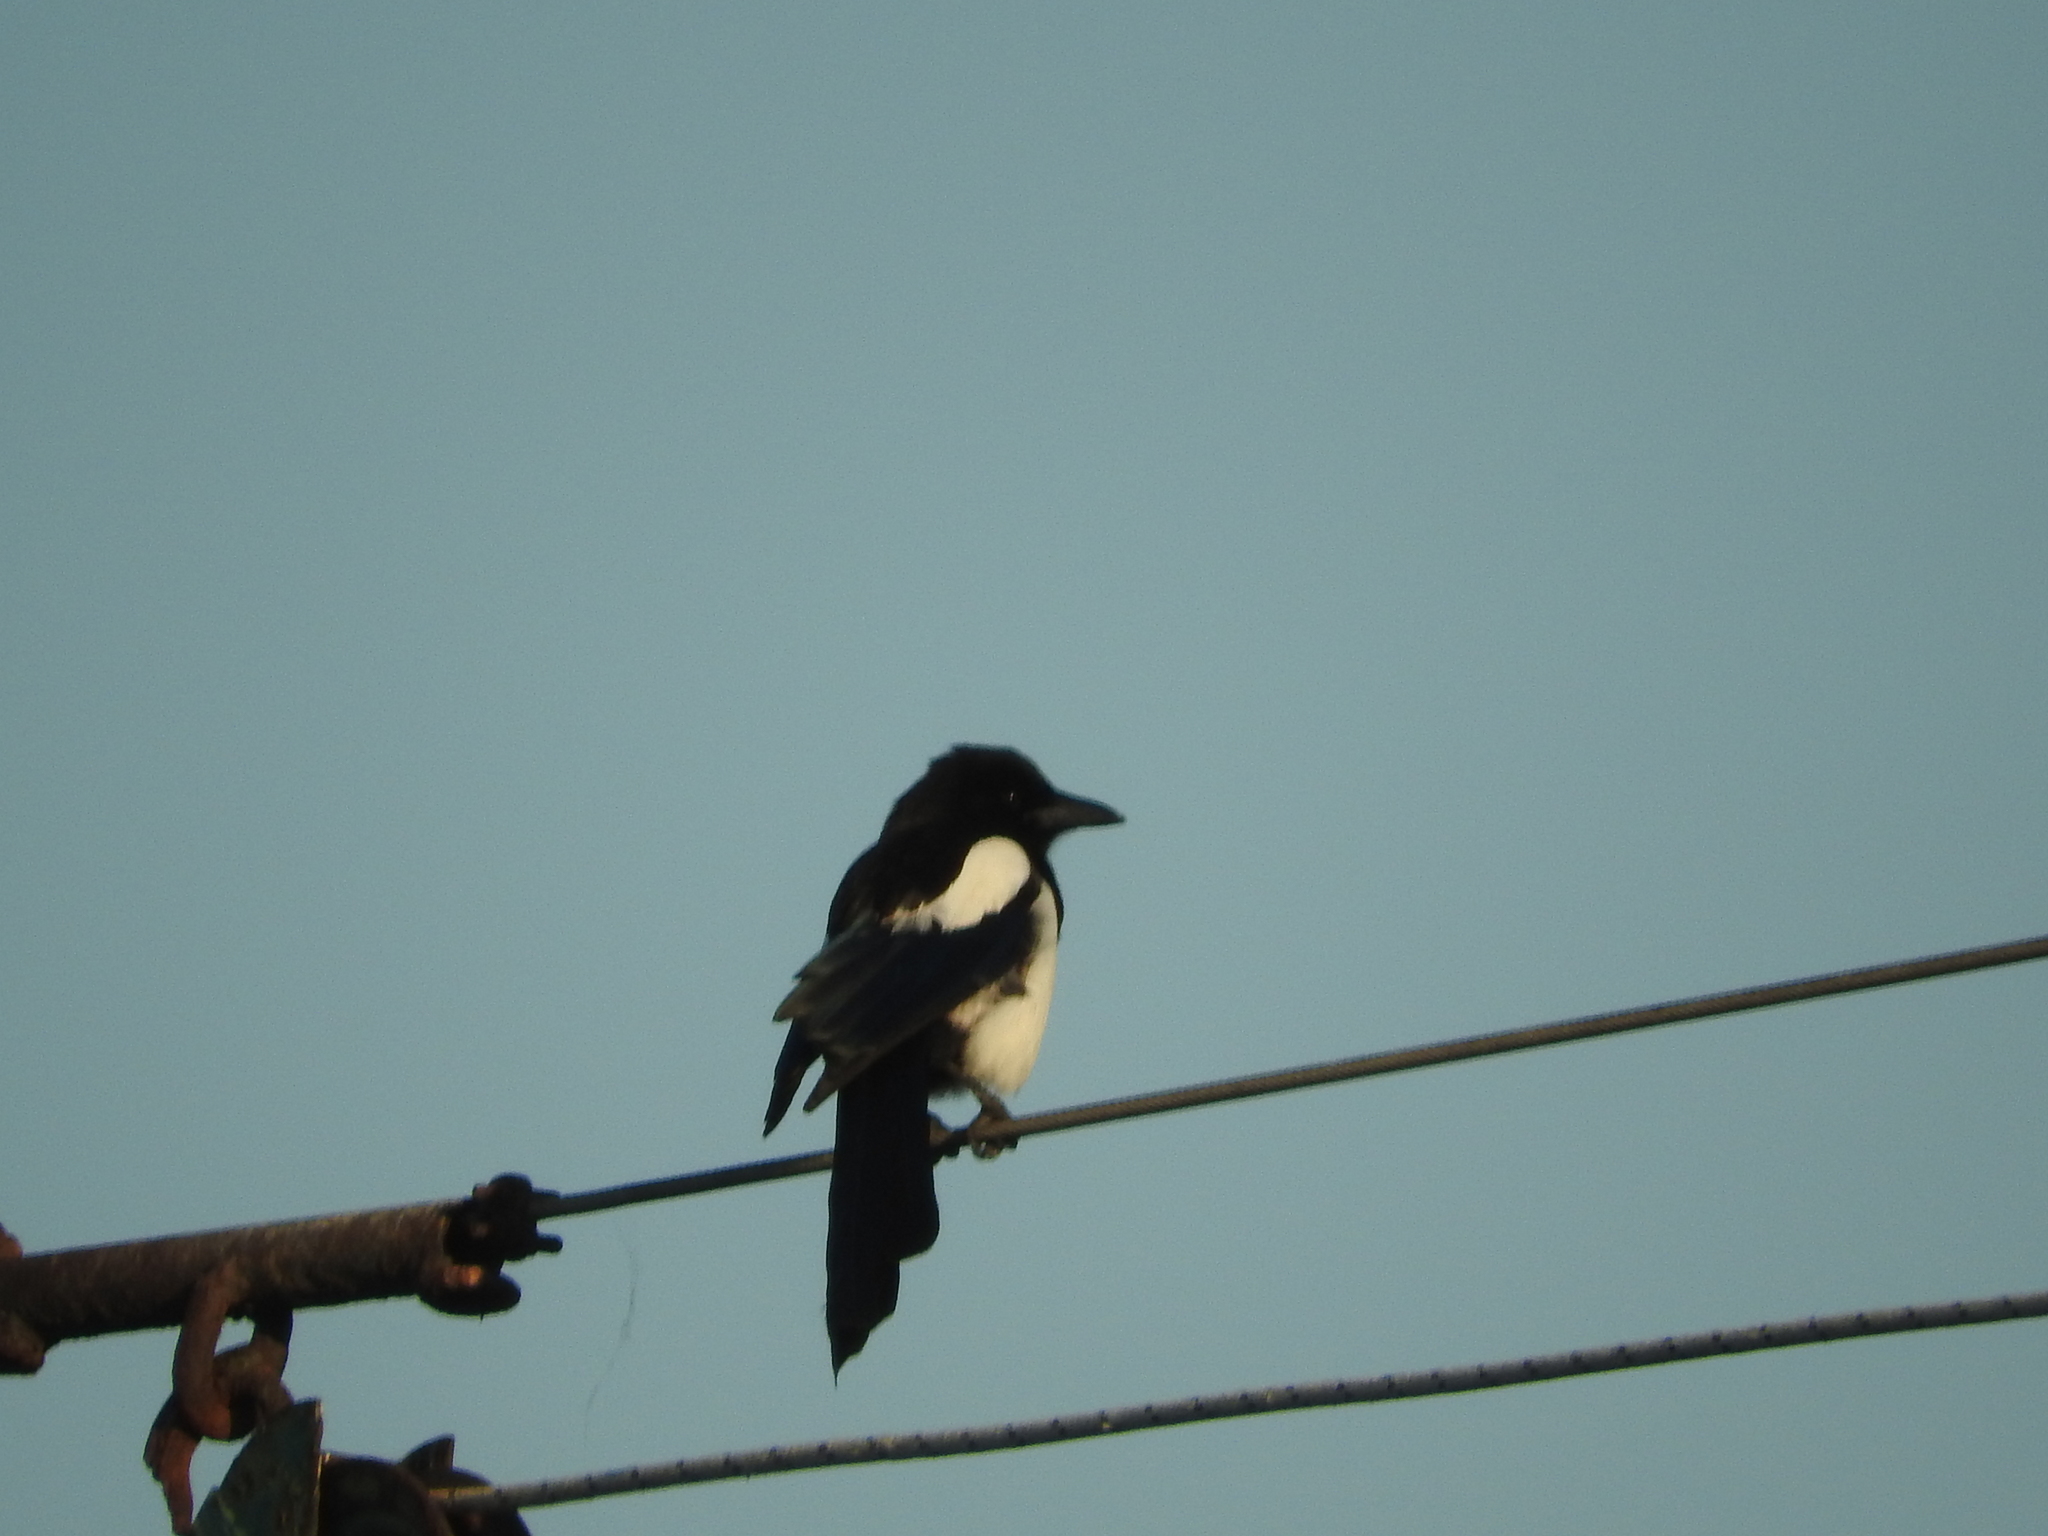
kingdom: Animalia
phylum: Chordata
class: Aves
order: Passeriformes
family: Corvidae
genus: Pica
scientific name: Pica pica
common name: Eurasian magpie
